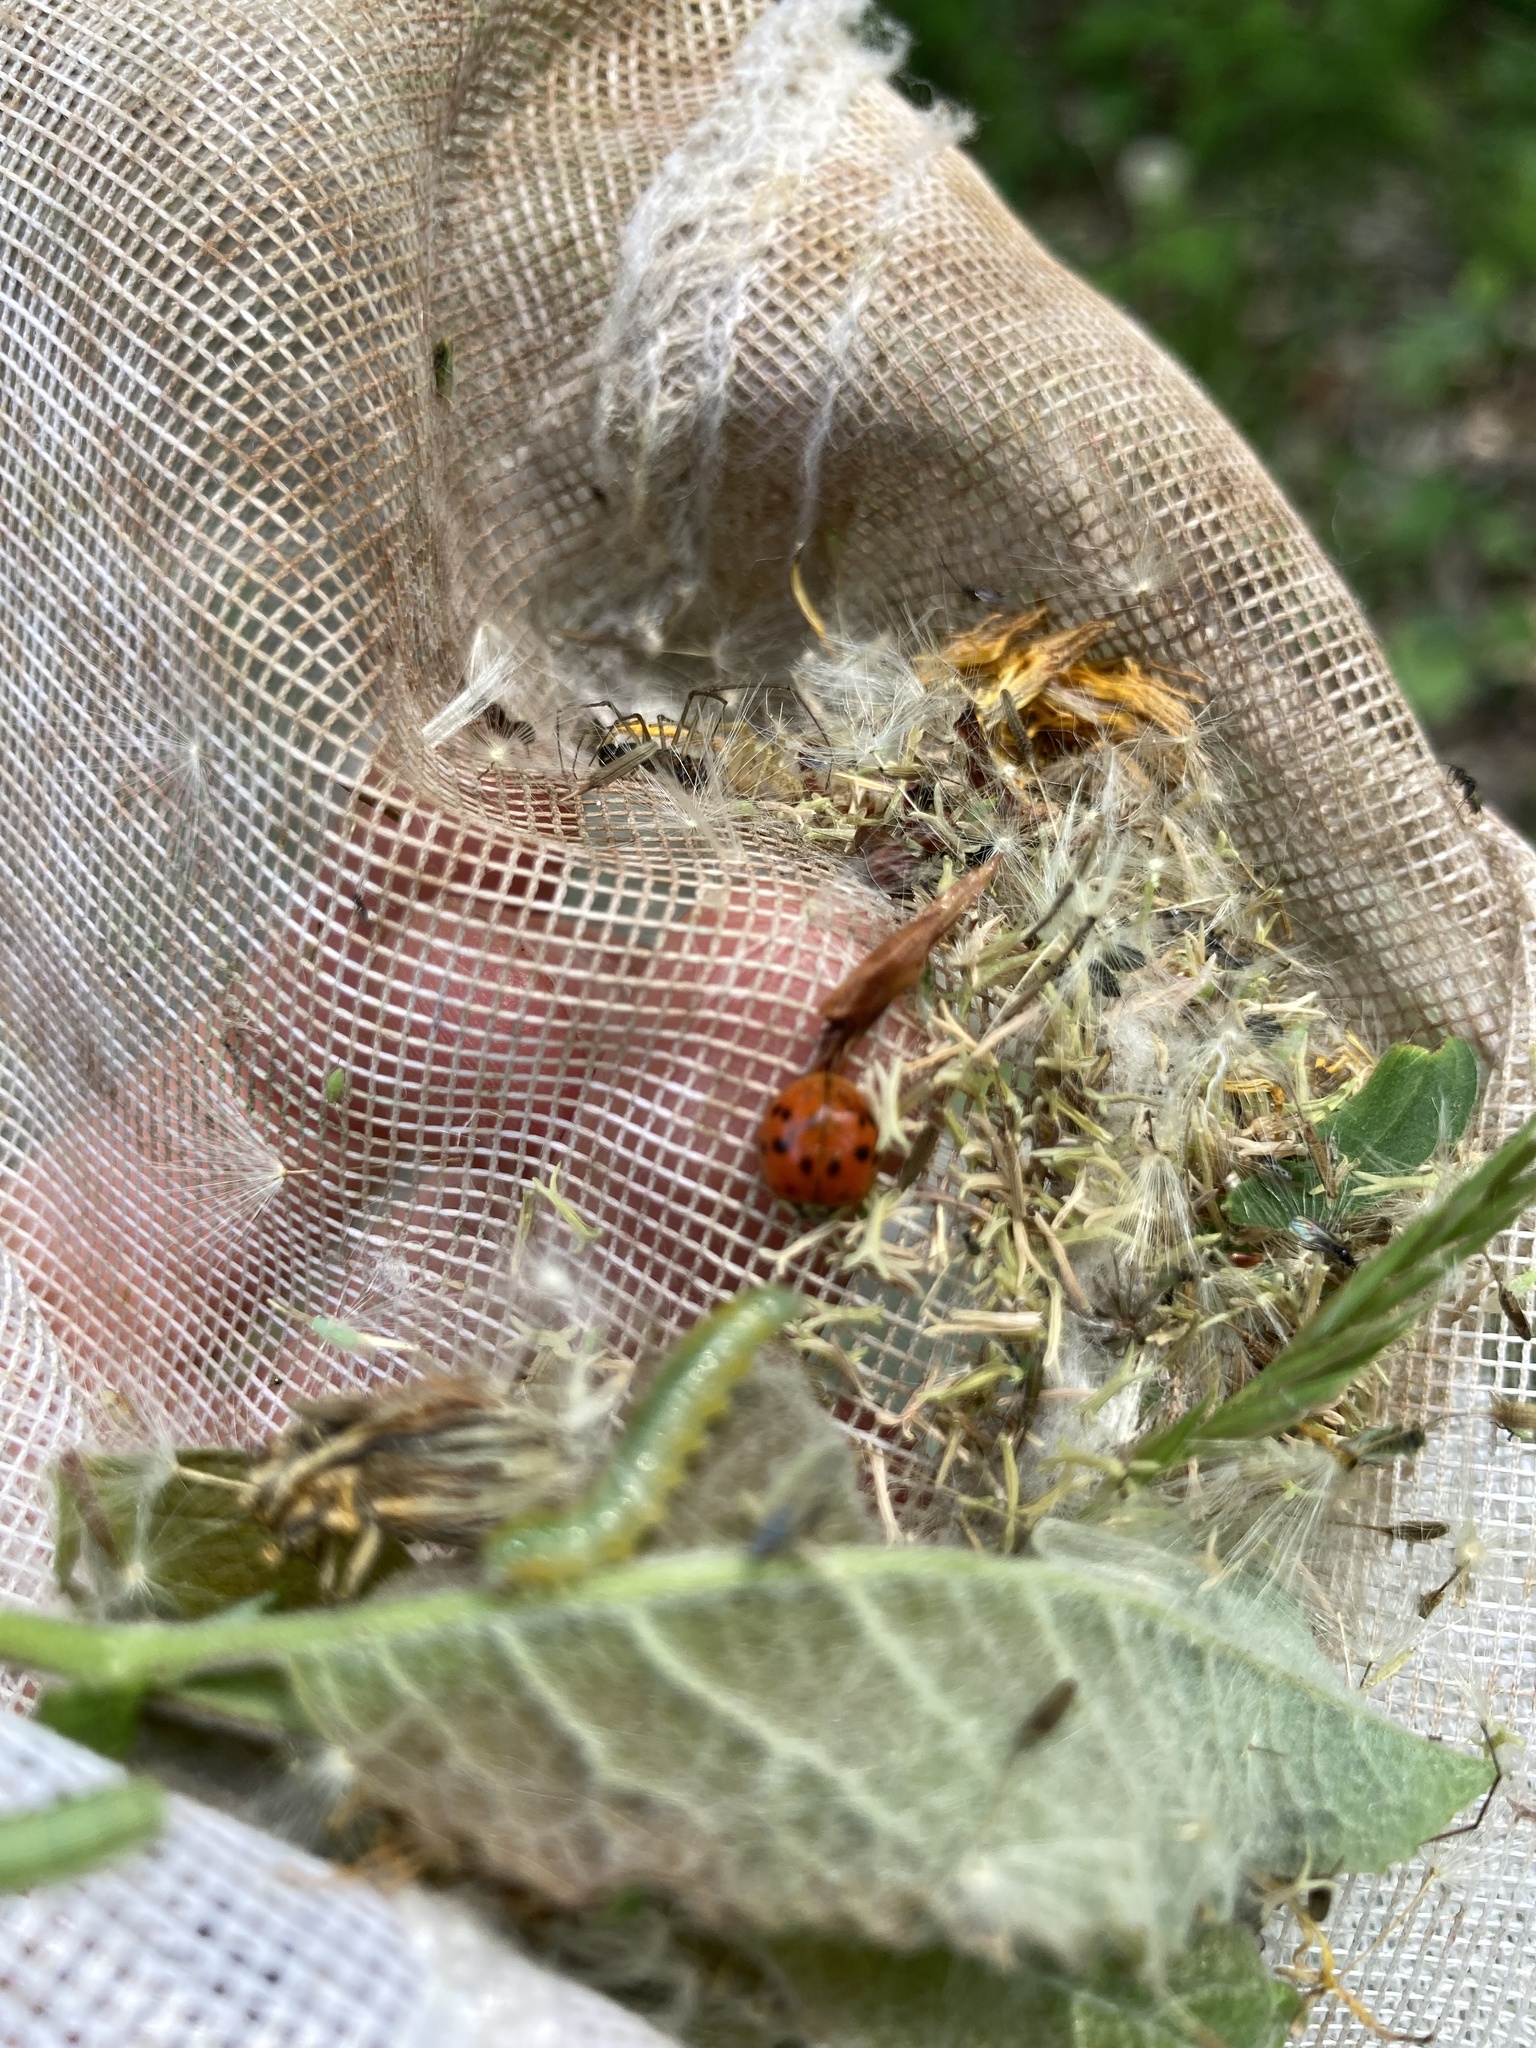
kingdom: Animalia
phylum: Arthropoda
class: Insecta
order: Coleoptera
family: Coccinellidae
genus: Harmonia
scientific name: Harmonia axyridis
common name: Harlequin ladybird
